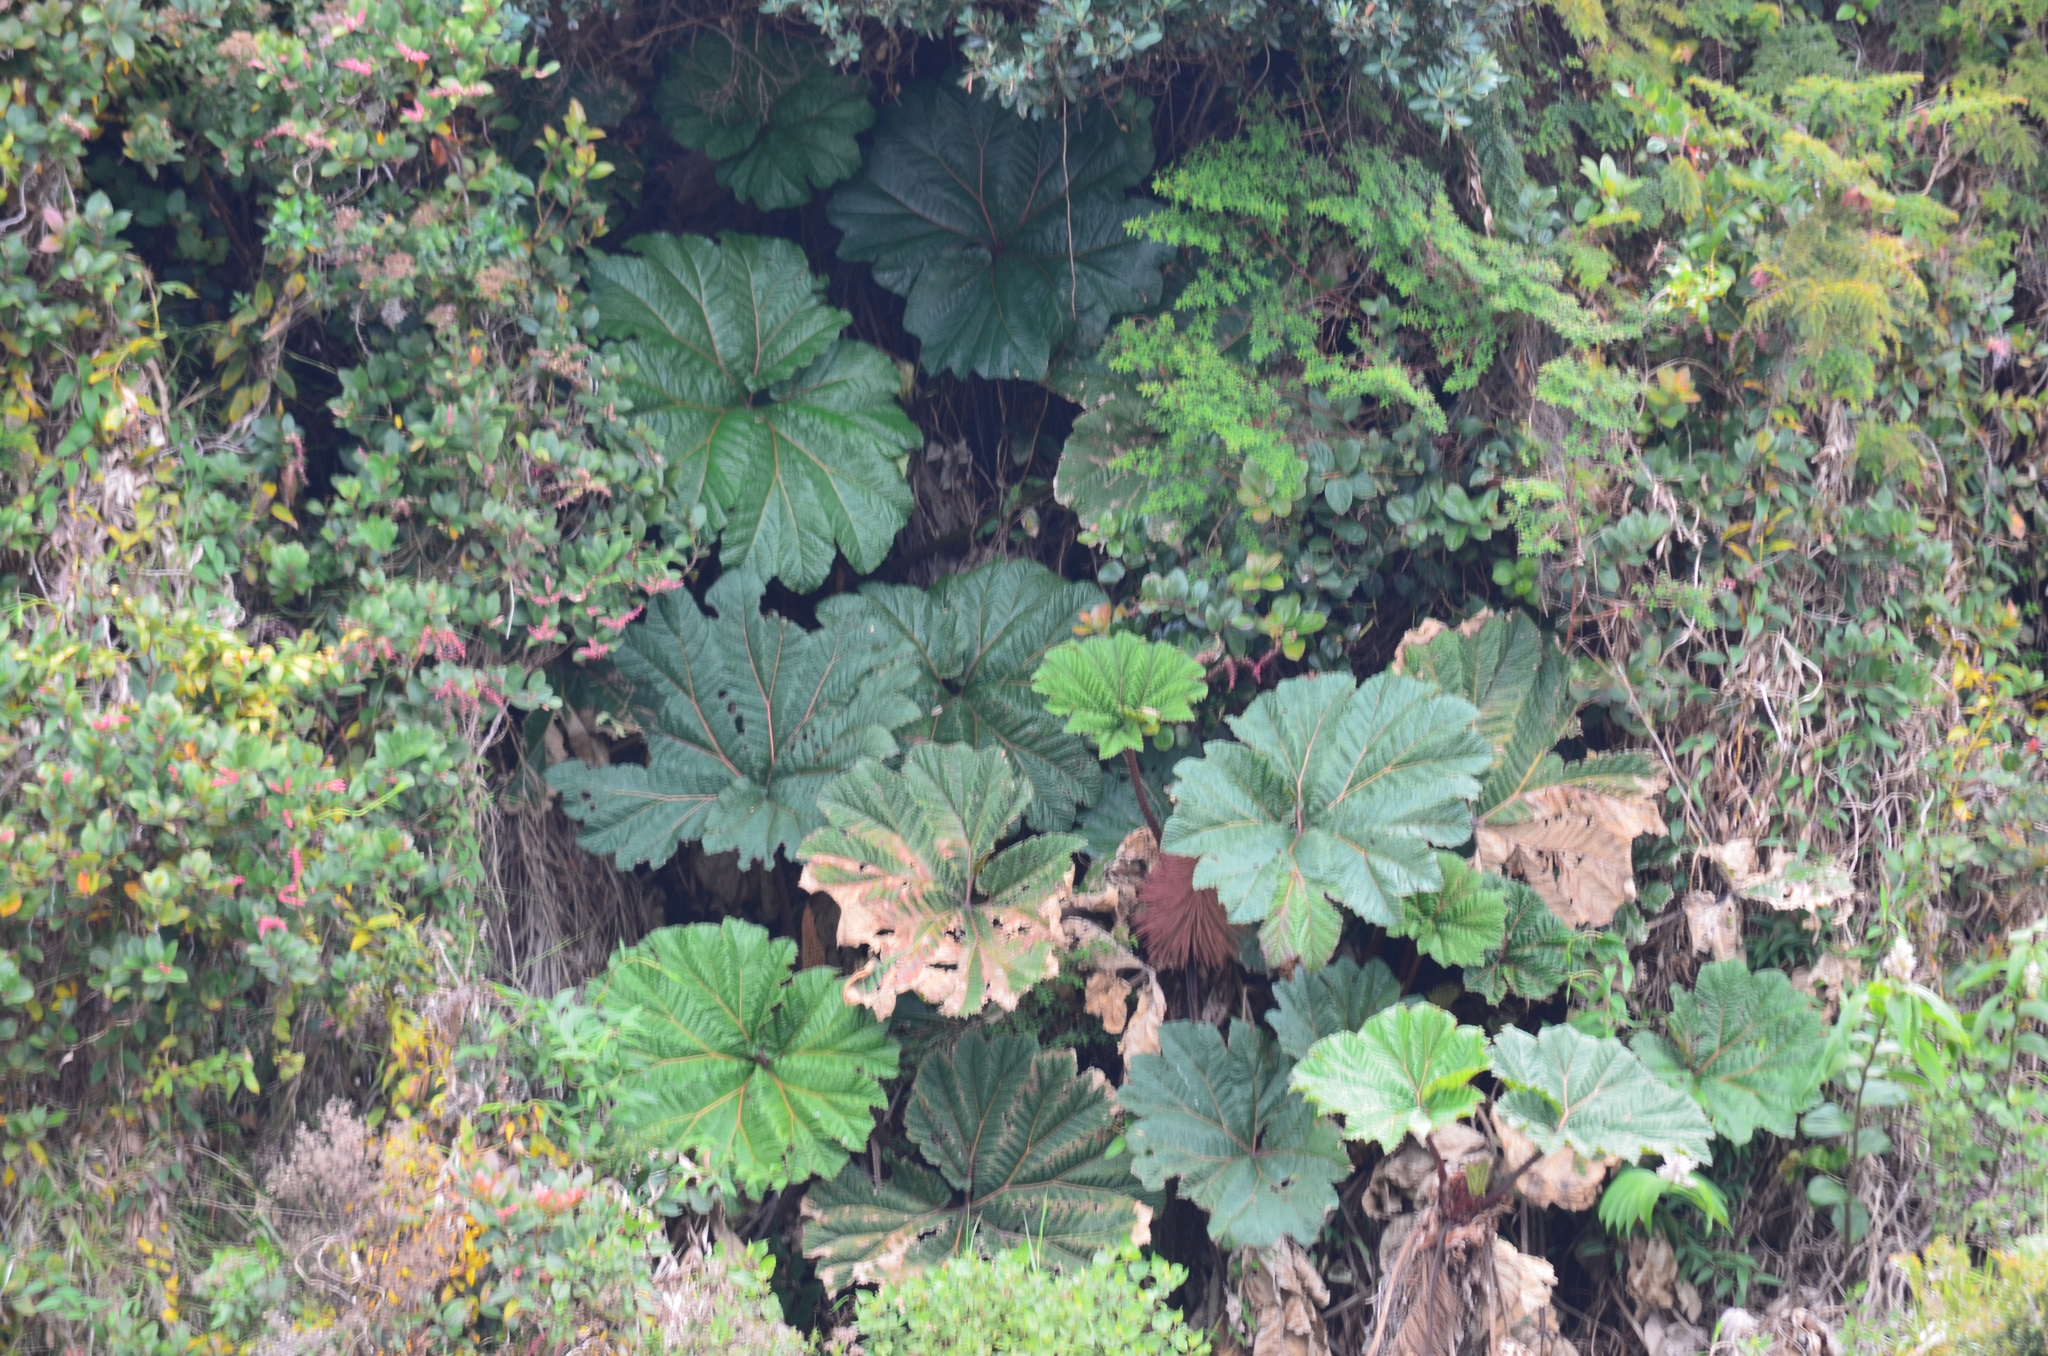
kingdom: Plantae
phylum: Tracheophyta
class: Magnoliopsida
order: Gunnerales
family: Gunneraceae
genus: Gunnera
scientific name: Gunnera insignis
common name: Poorman's umbrella
